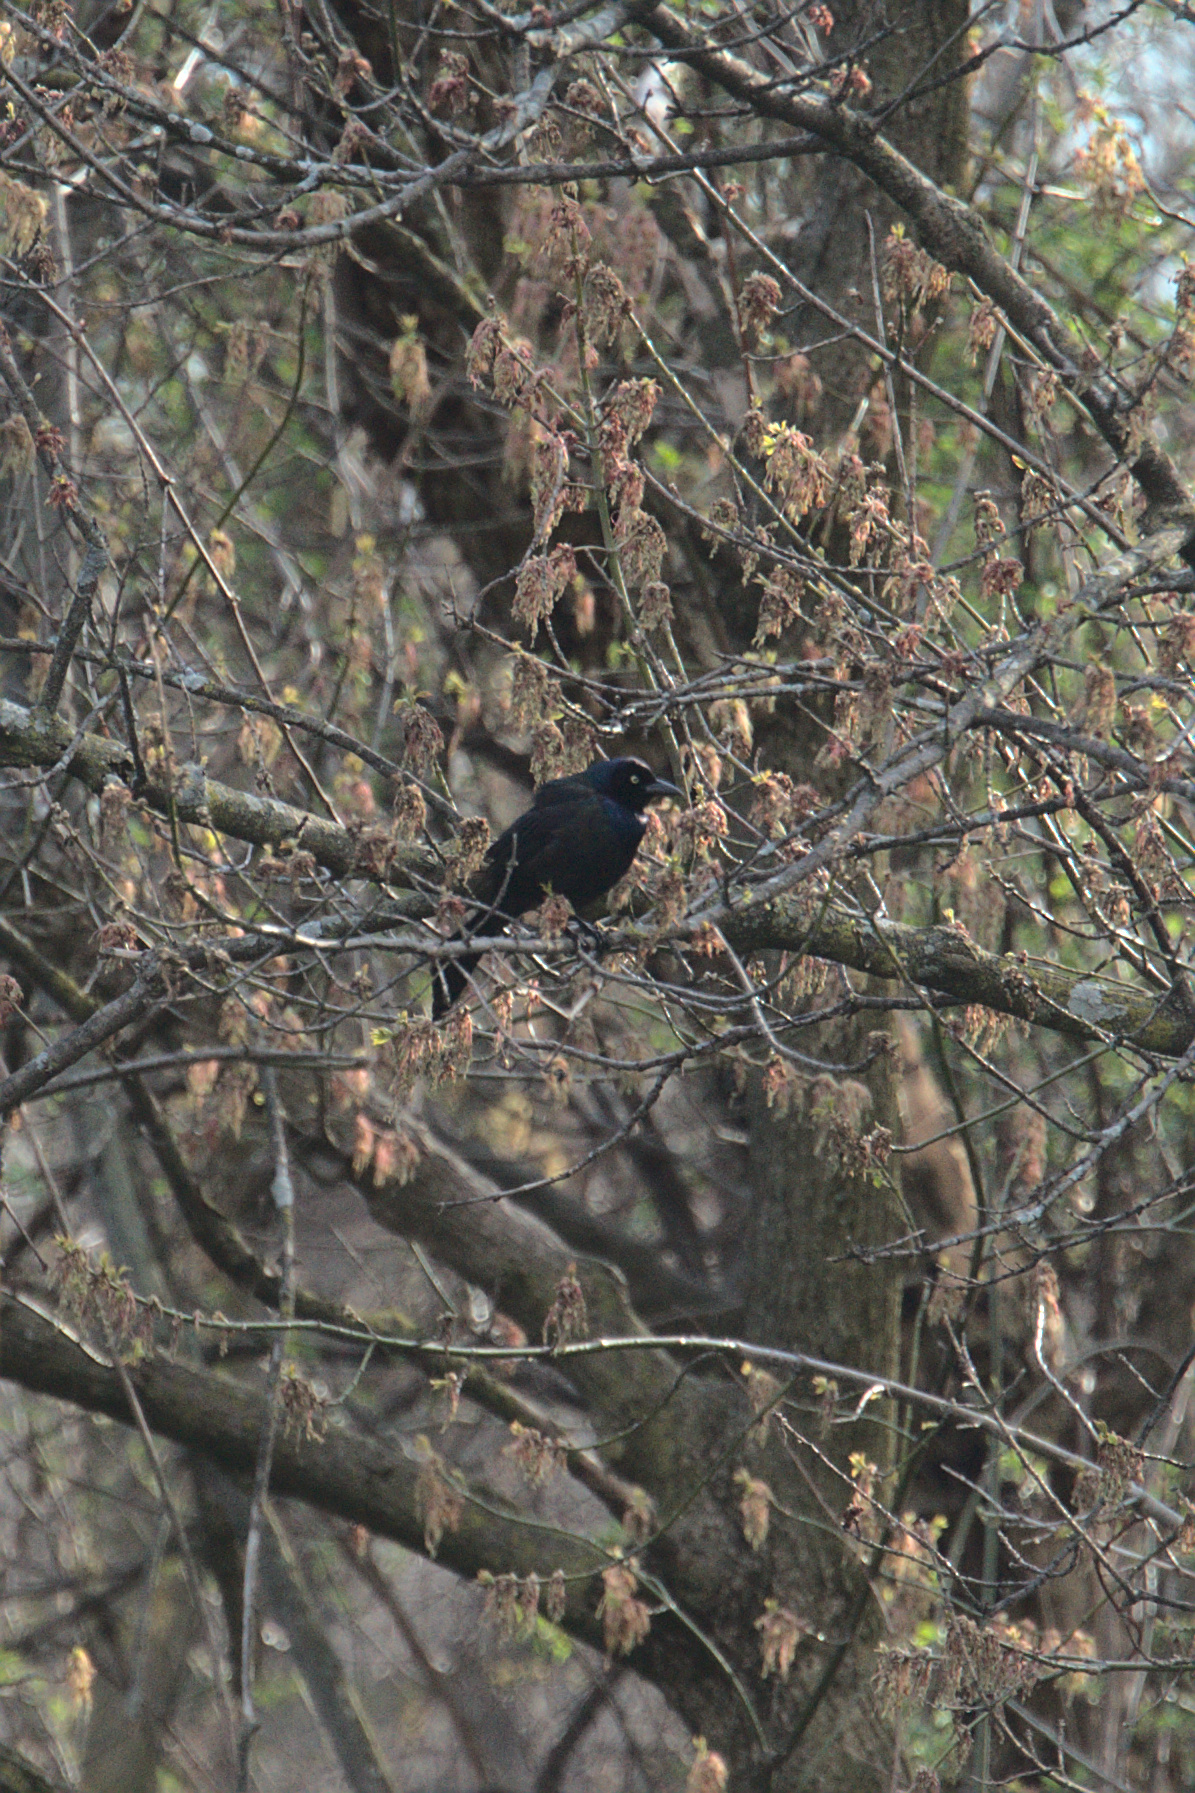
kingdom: Animalia
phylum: Chordata
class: Aves
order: Passeriformes
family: Icteridae
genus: Quiscalus
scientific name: Quiscalus quiscula
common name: Common grackle
